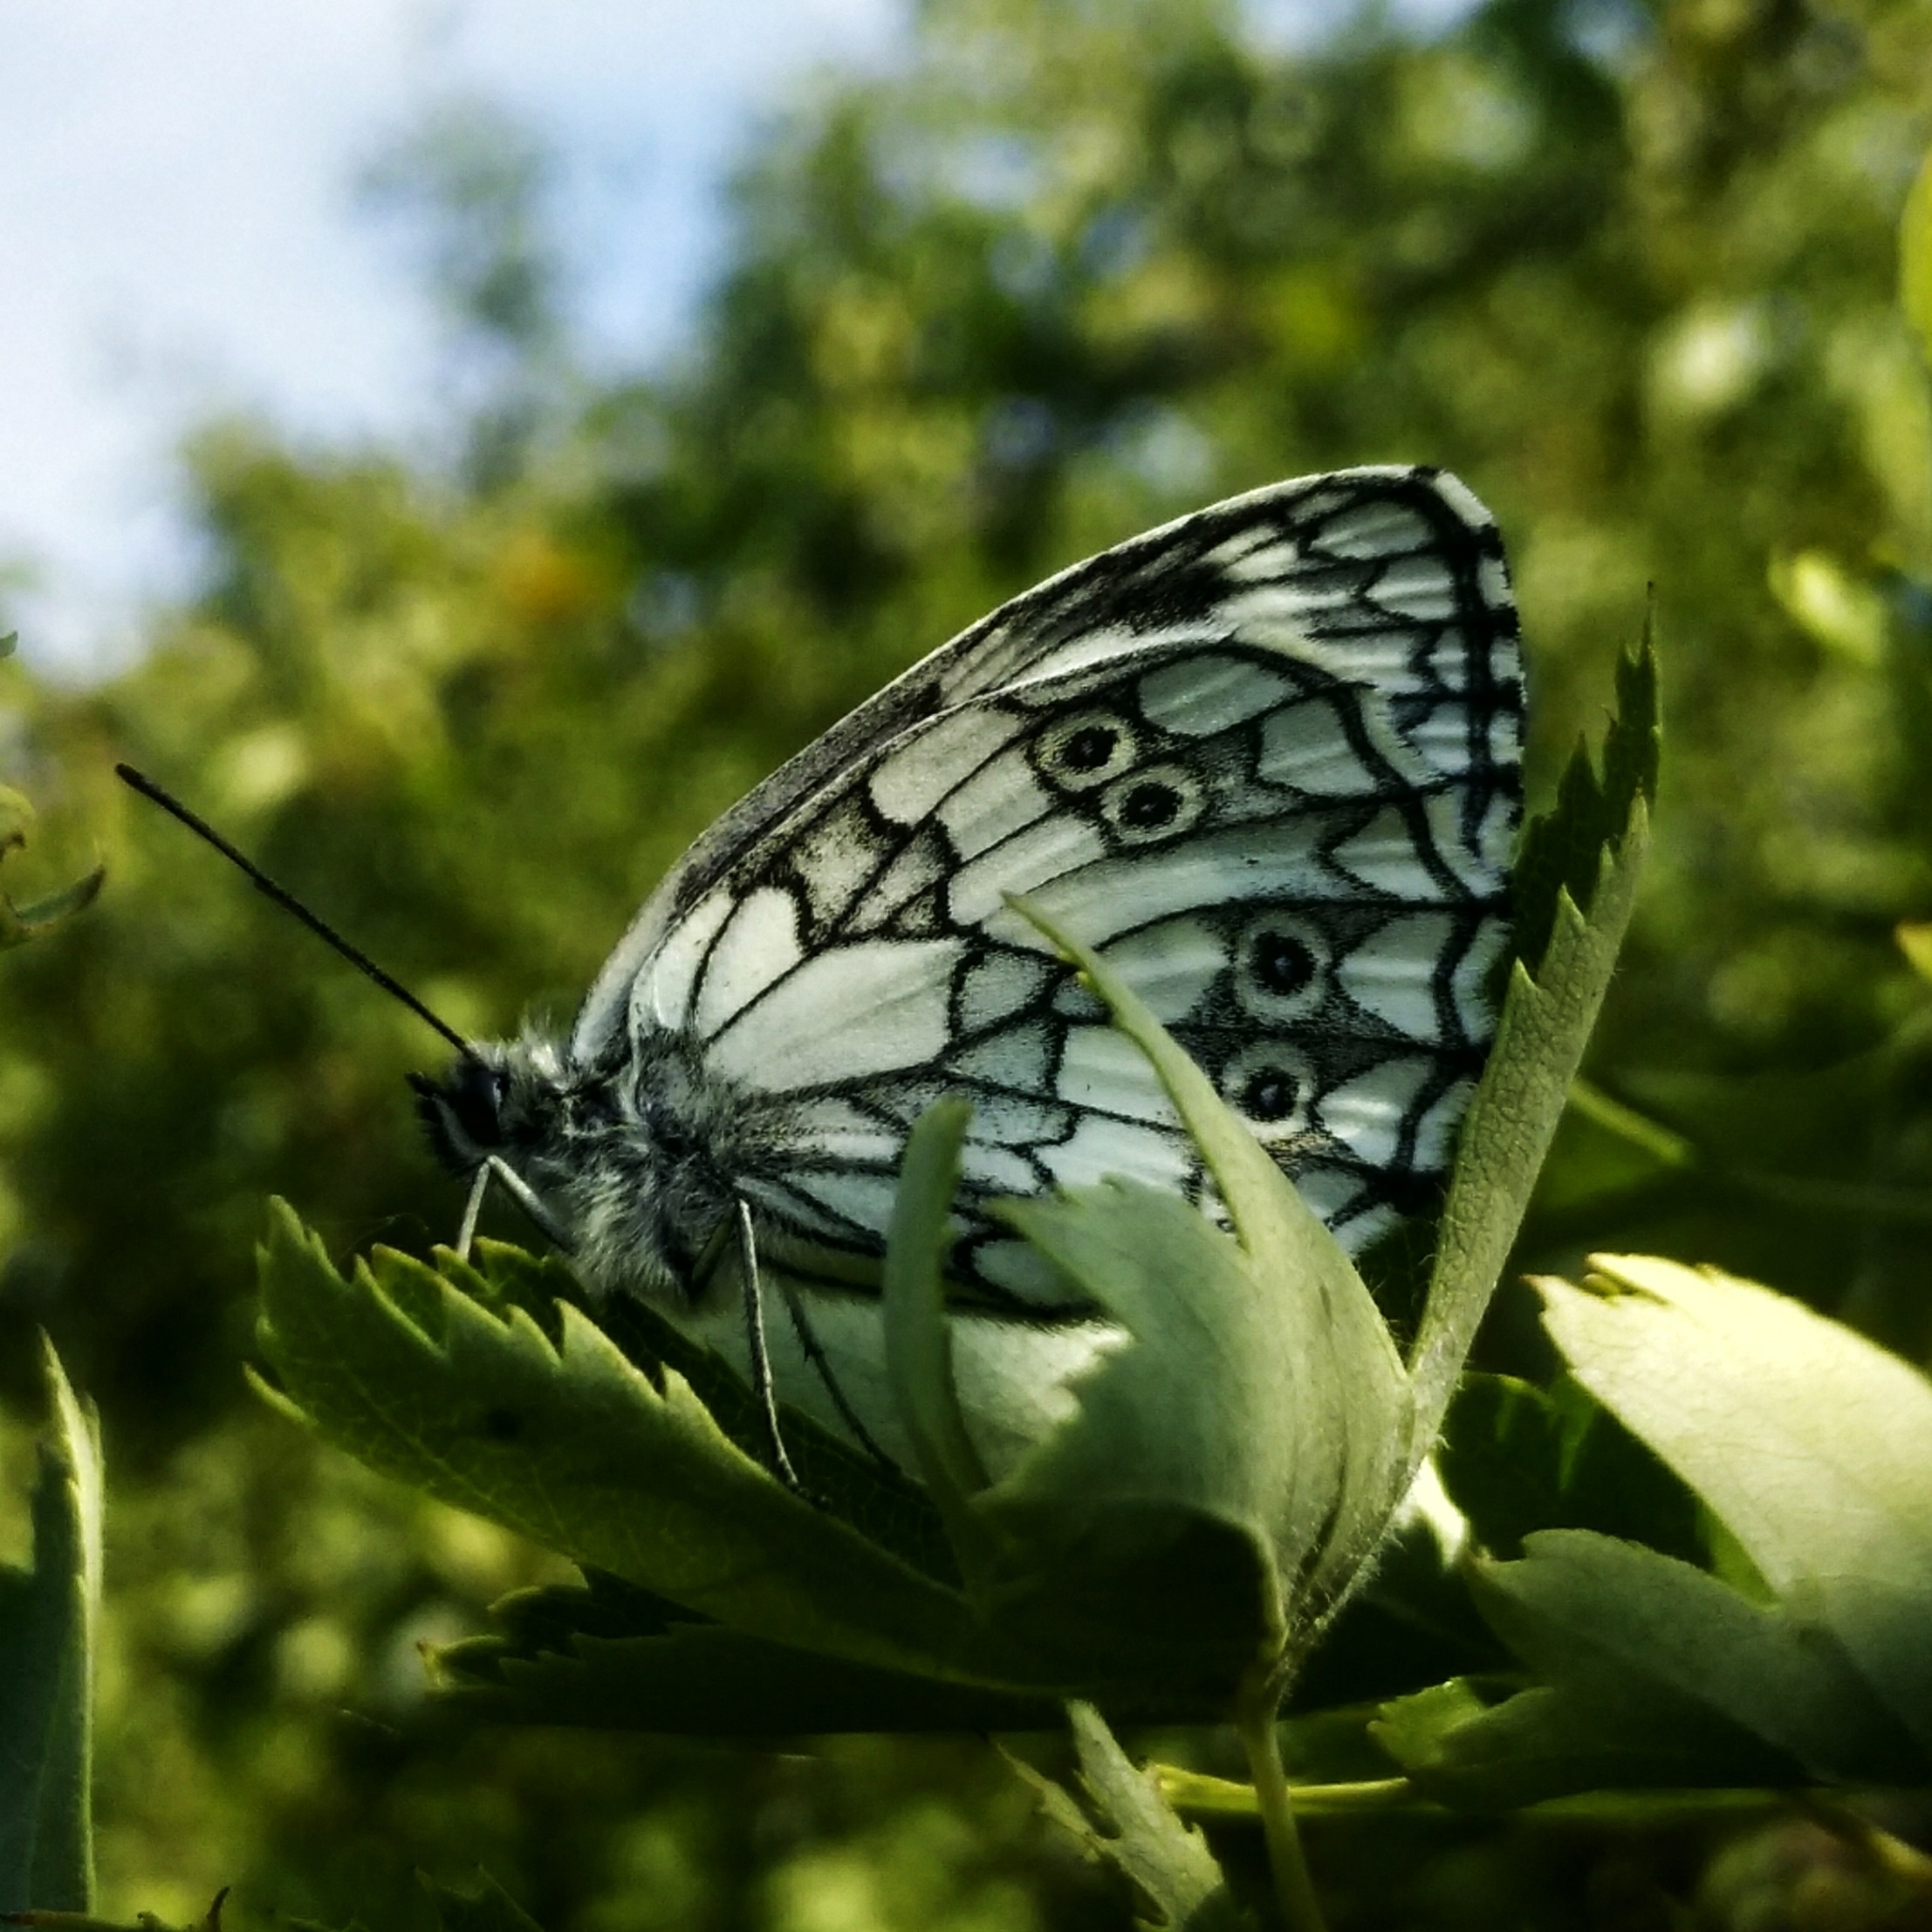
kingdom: Animalia
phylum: Arthropoda
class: Insecta
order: Lepidoptera
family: Nymphalidae
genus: Melanargia
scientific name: Melanargia galathea
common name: Marbled white
